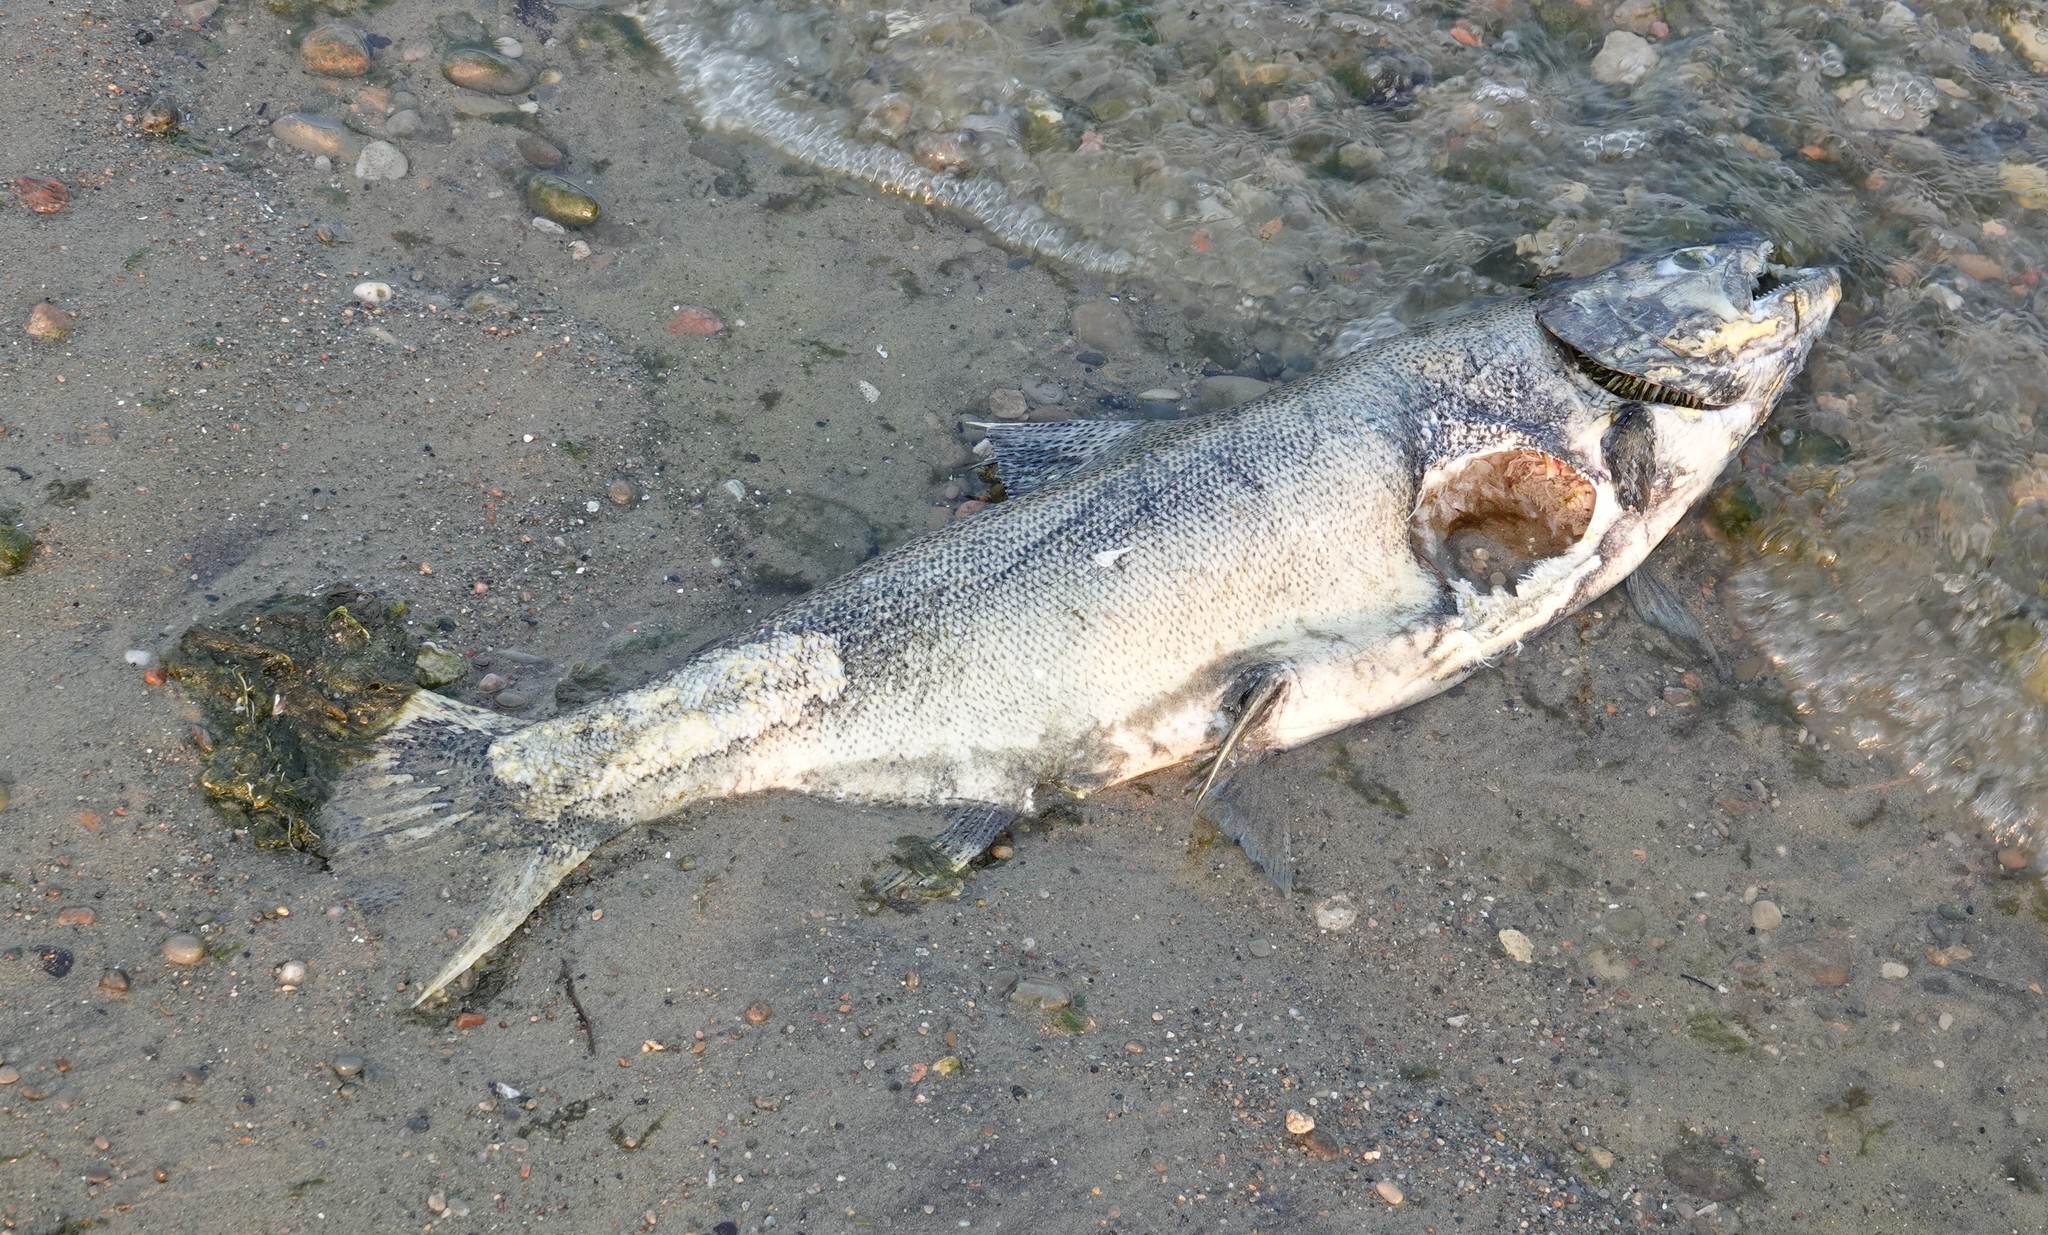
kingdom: Animalia
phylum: Chordata
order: Salmoniformes
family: Salmonidae
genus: Oncorhynchus
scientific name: Oncorhynchus tshawytscha
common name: Chinook salmon
